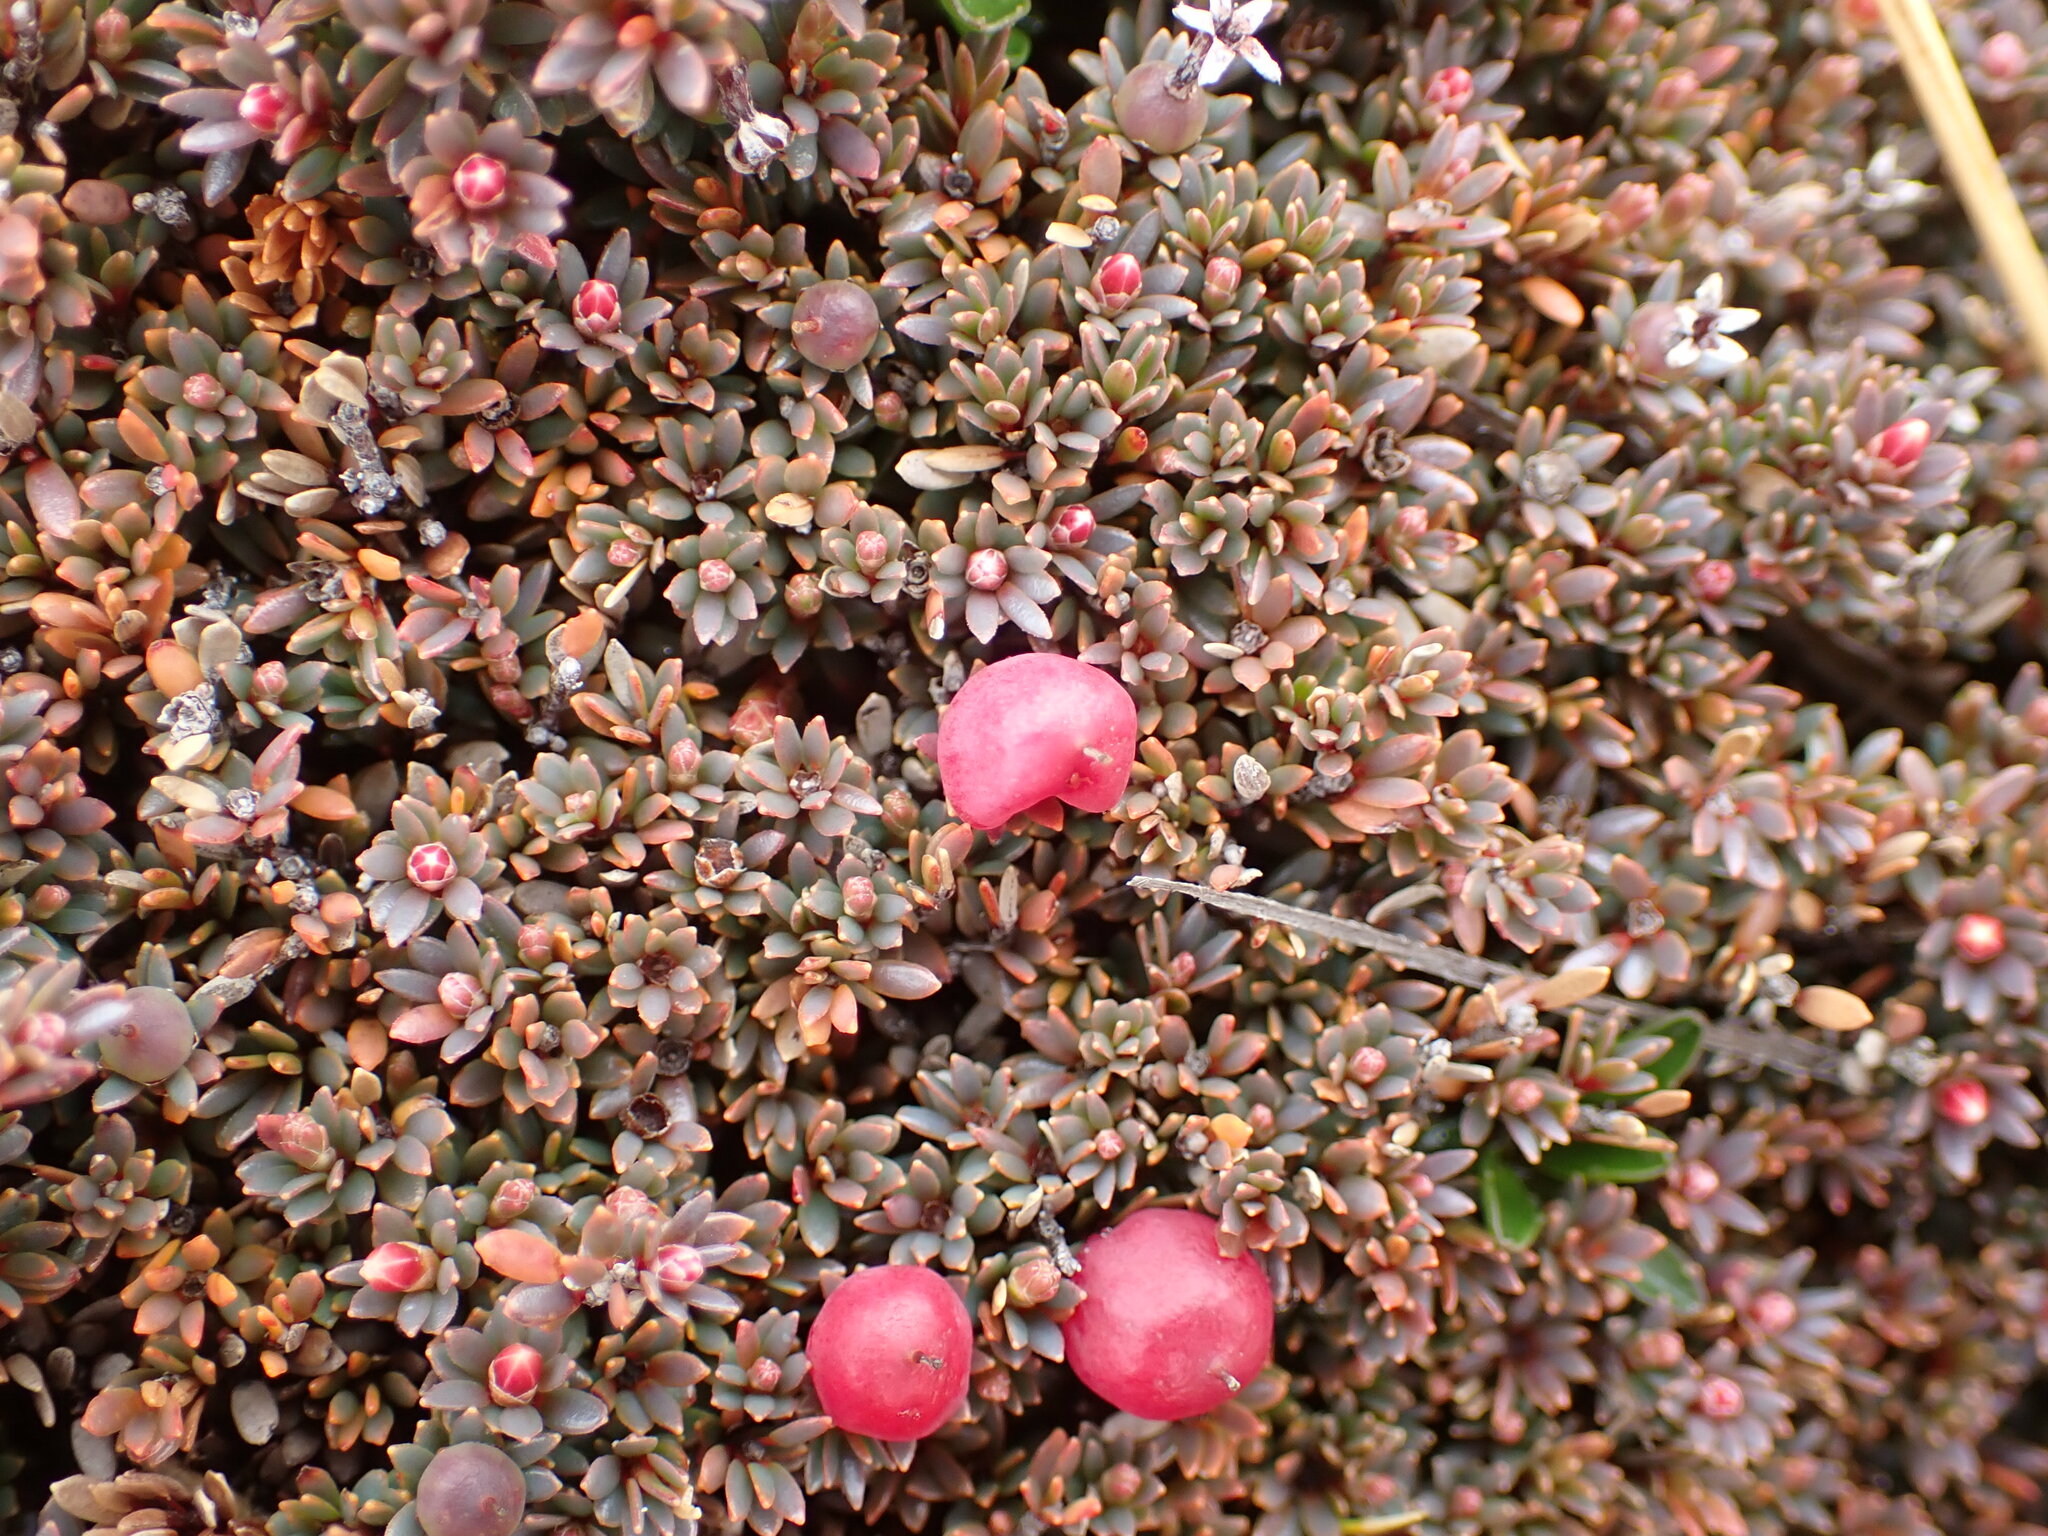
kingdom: Plantae
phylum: Tracheophyta
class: Magnoliopsida
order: Ericales
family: Ericaceae
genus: Pentachondra
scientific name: Pentachondra pumila
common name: Carpet-heath
